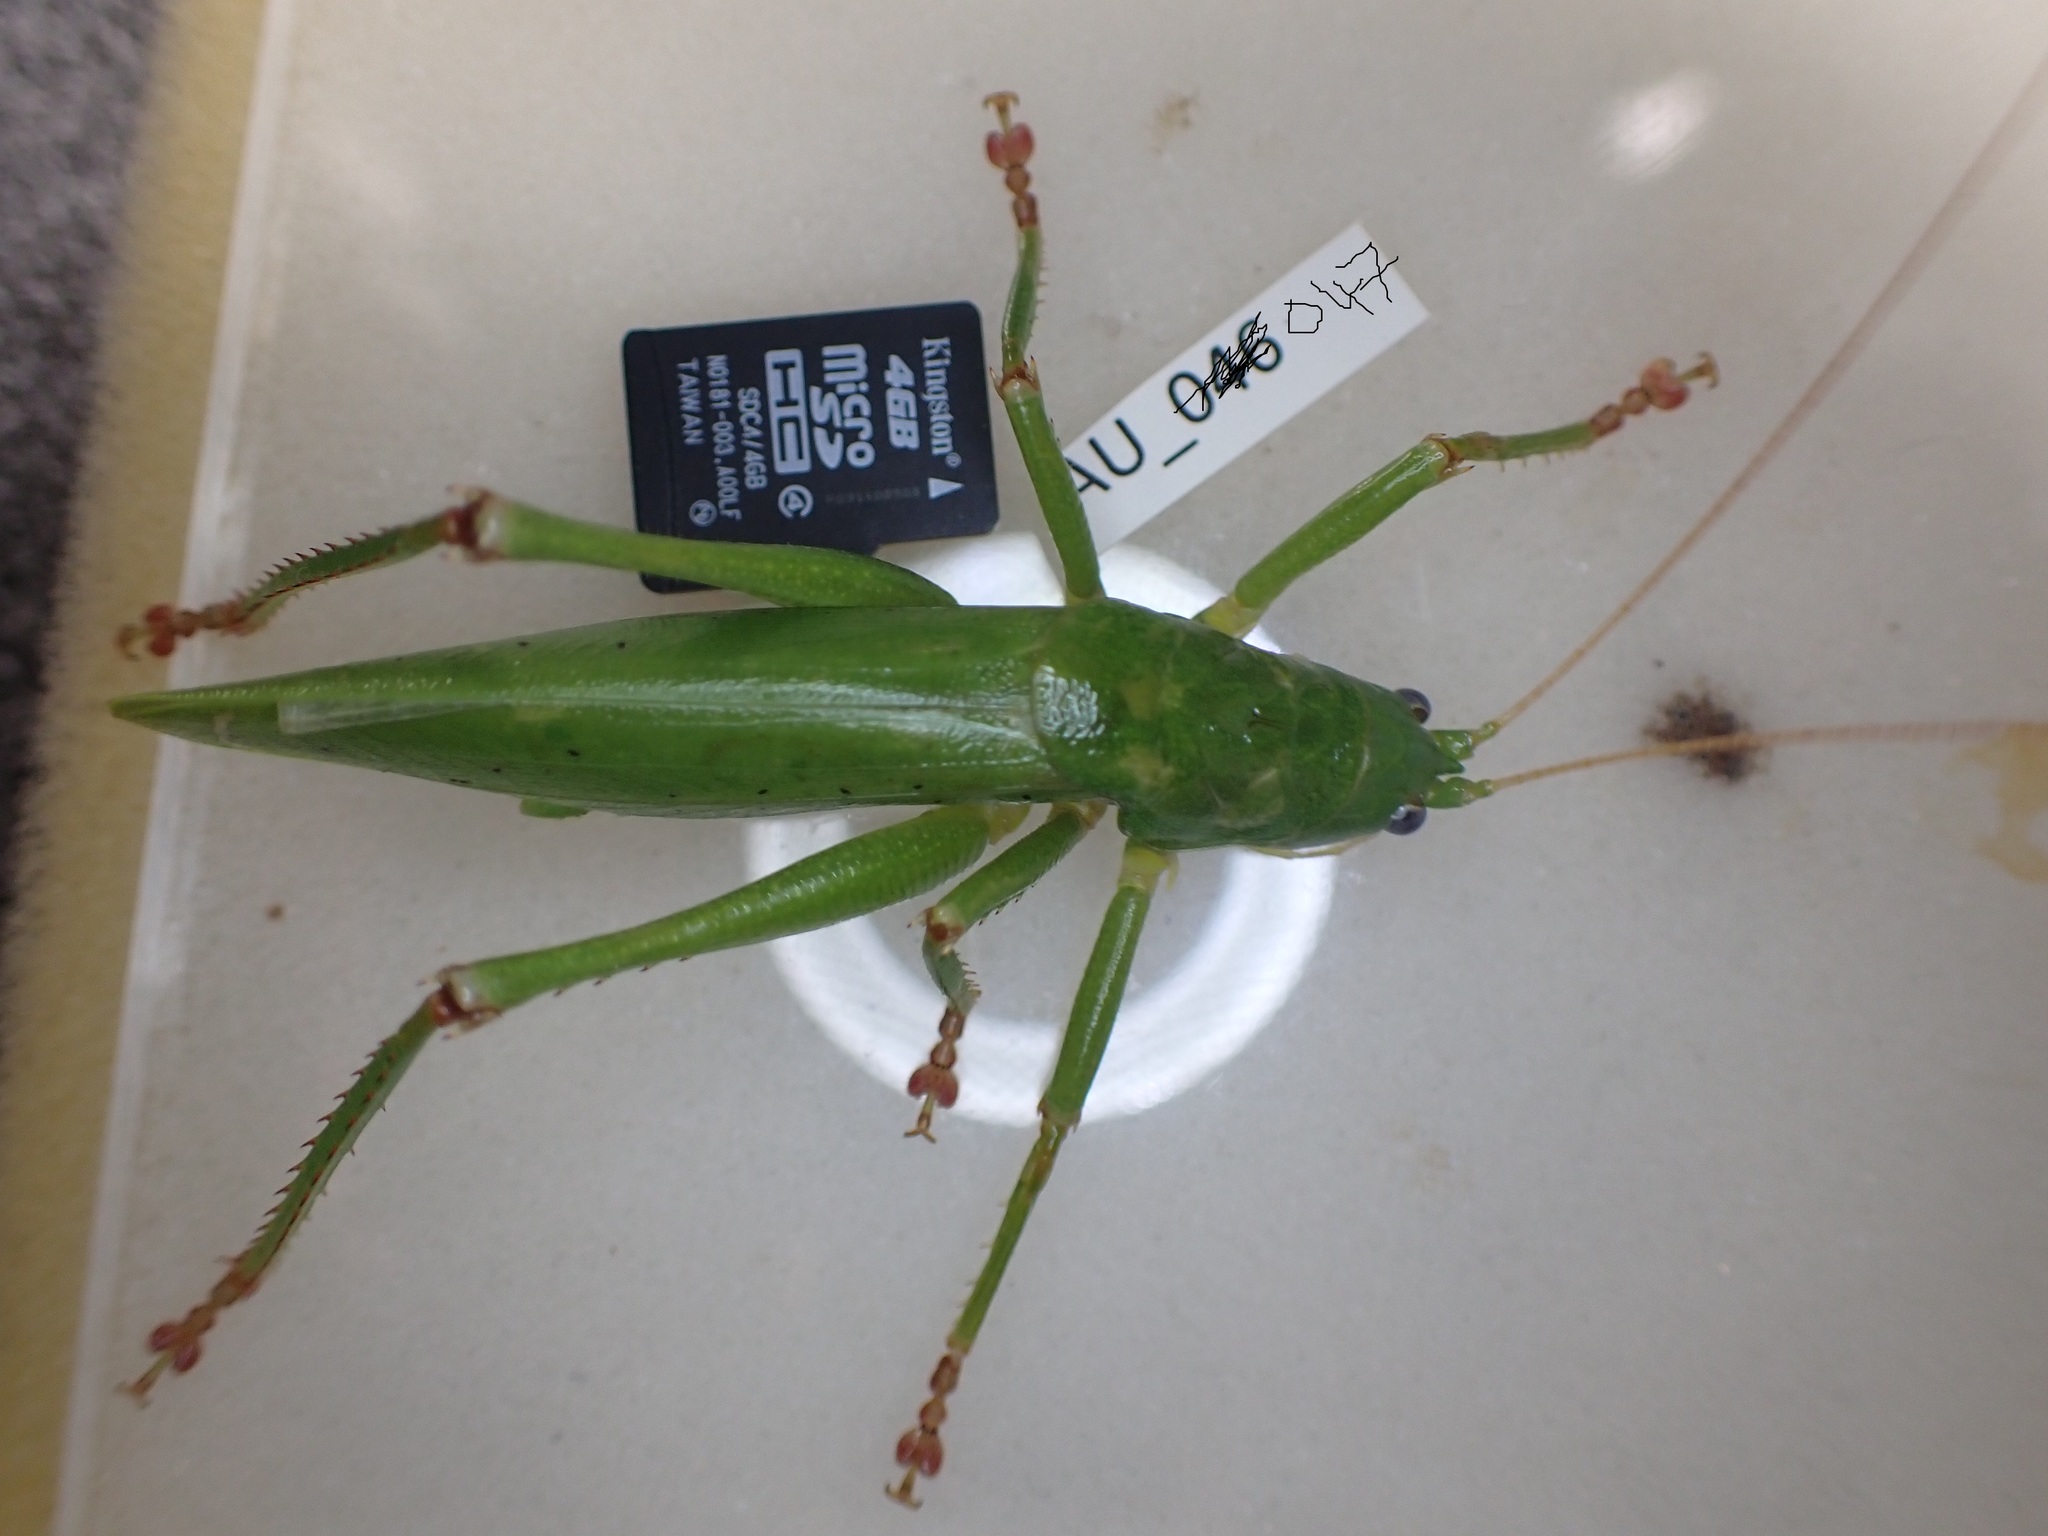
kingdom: Animalia
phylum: Arthropoda
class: Insecta
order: Orthoptera
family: Tettigoniidae
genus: Austrosalomona
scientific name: Austrosalomona destructor
